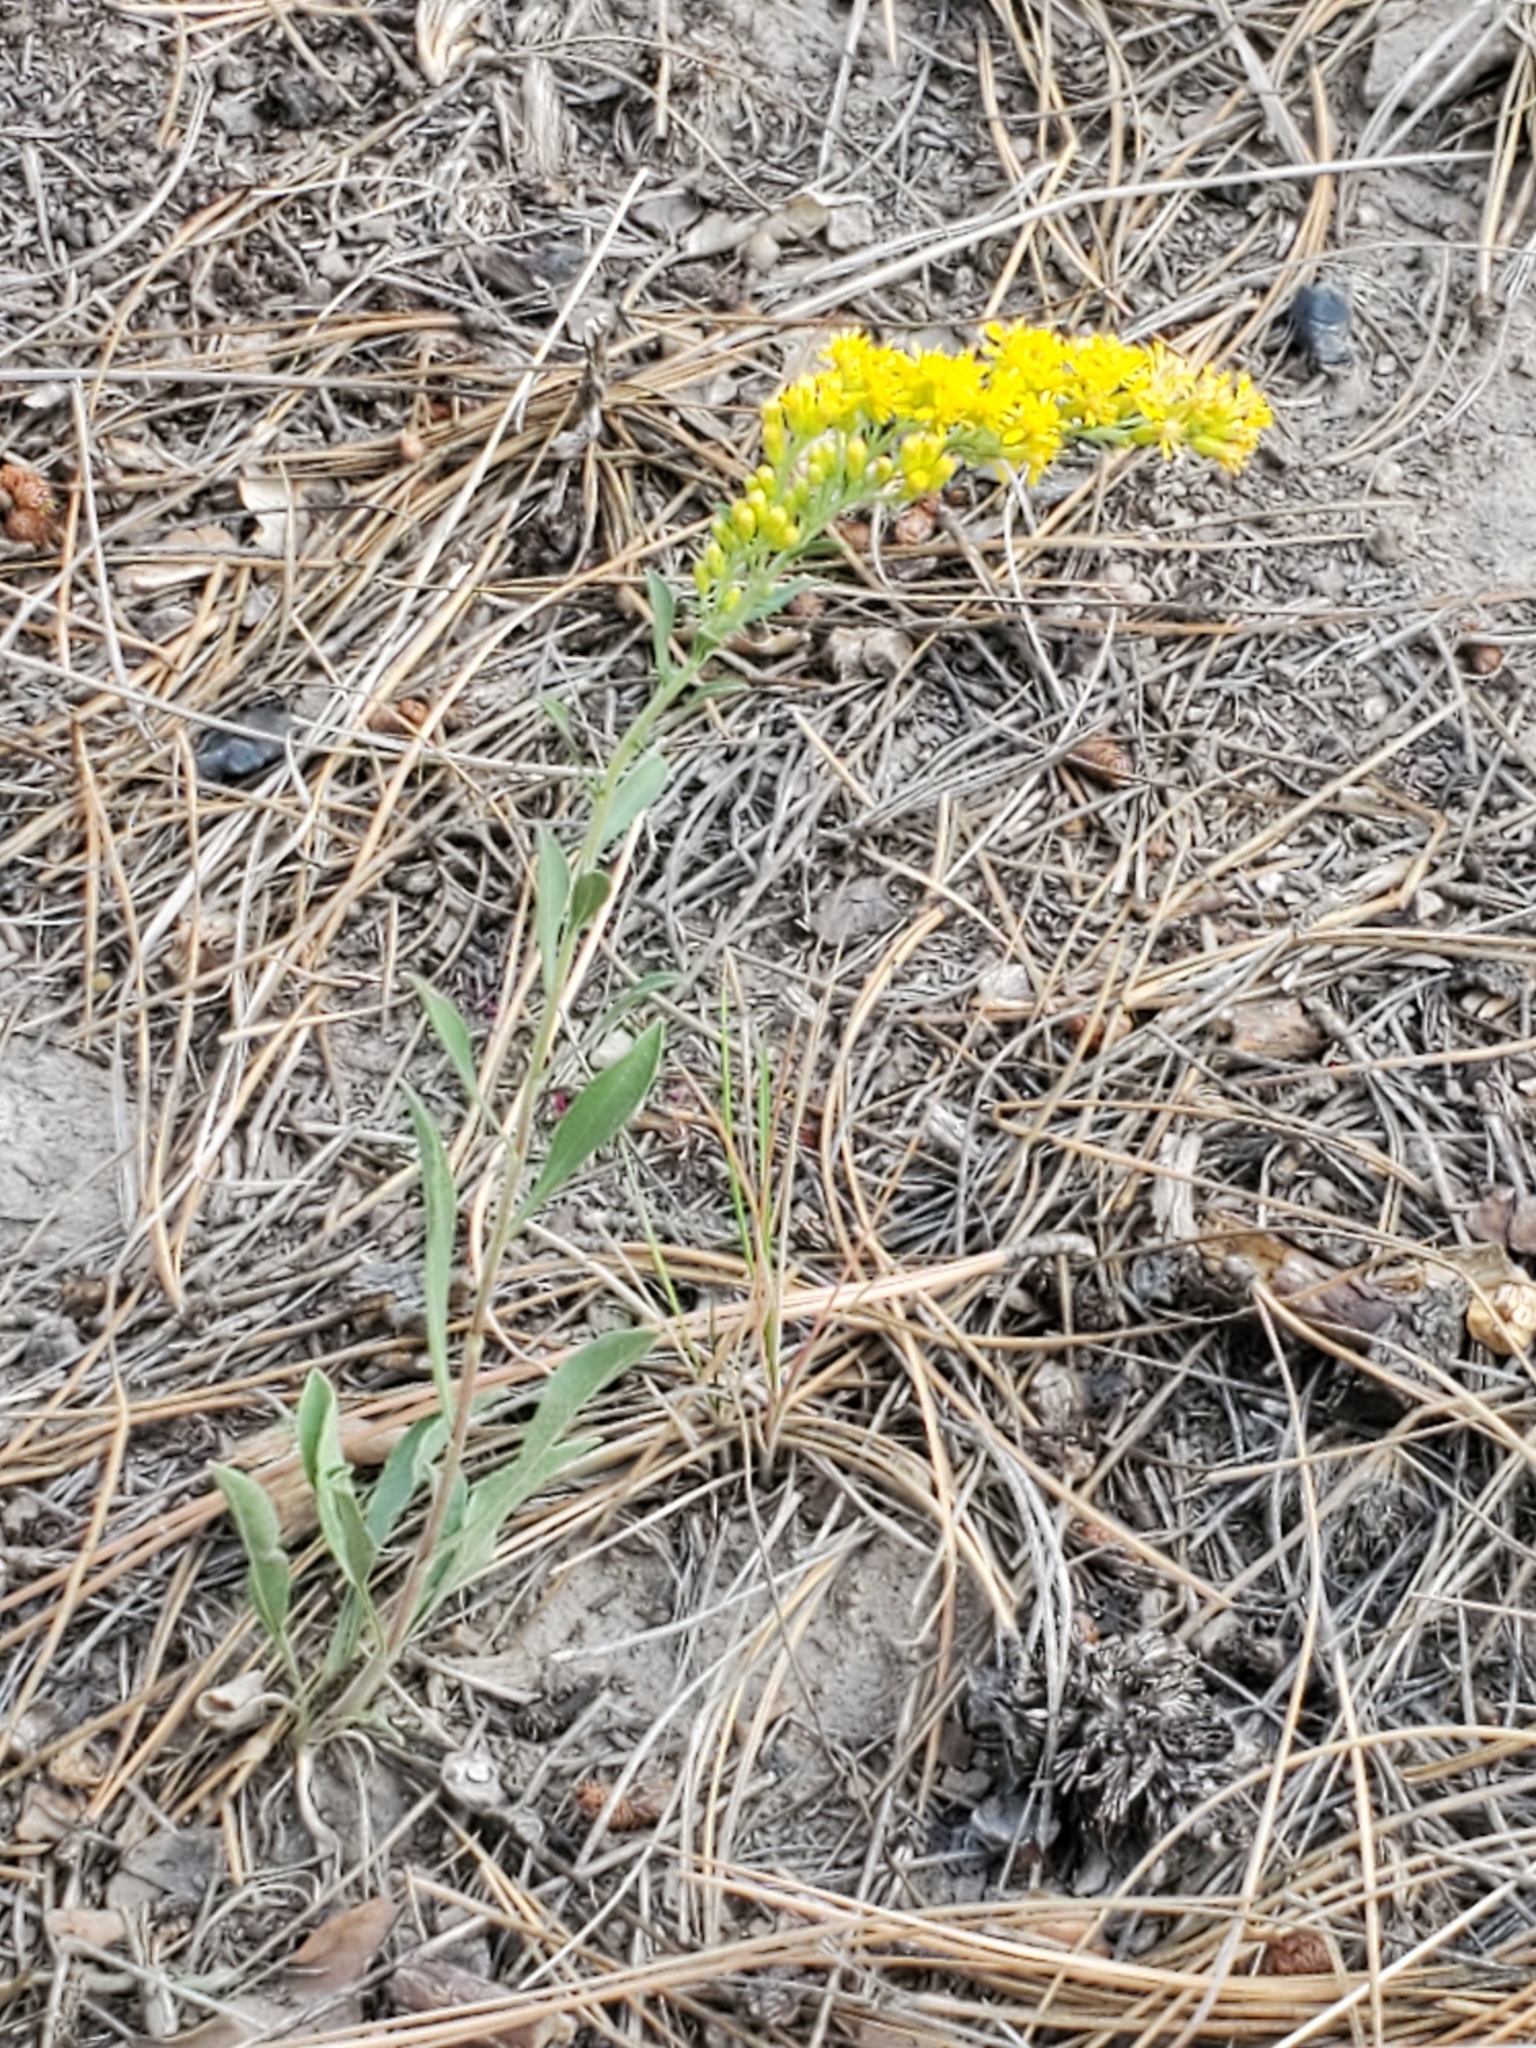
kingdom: Plantae
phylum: Tracheophyta
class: Magnoliopsida
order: Asterales
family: Asteraceae
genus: Solidago
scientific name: Solidago nemoralis
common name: Grey goldenrod
